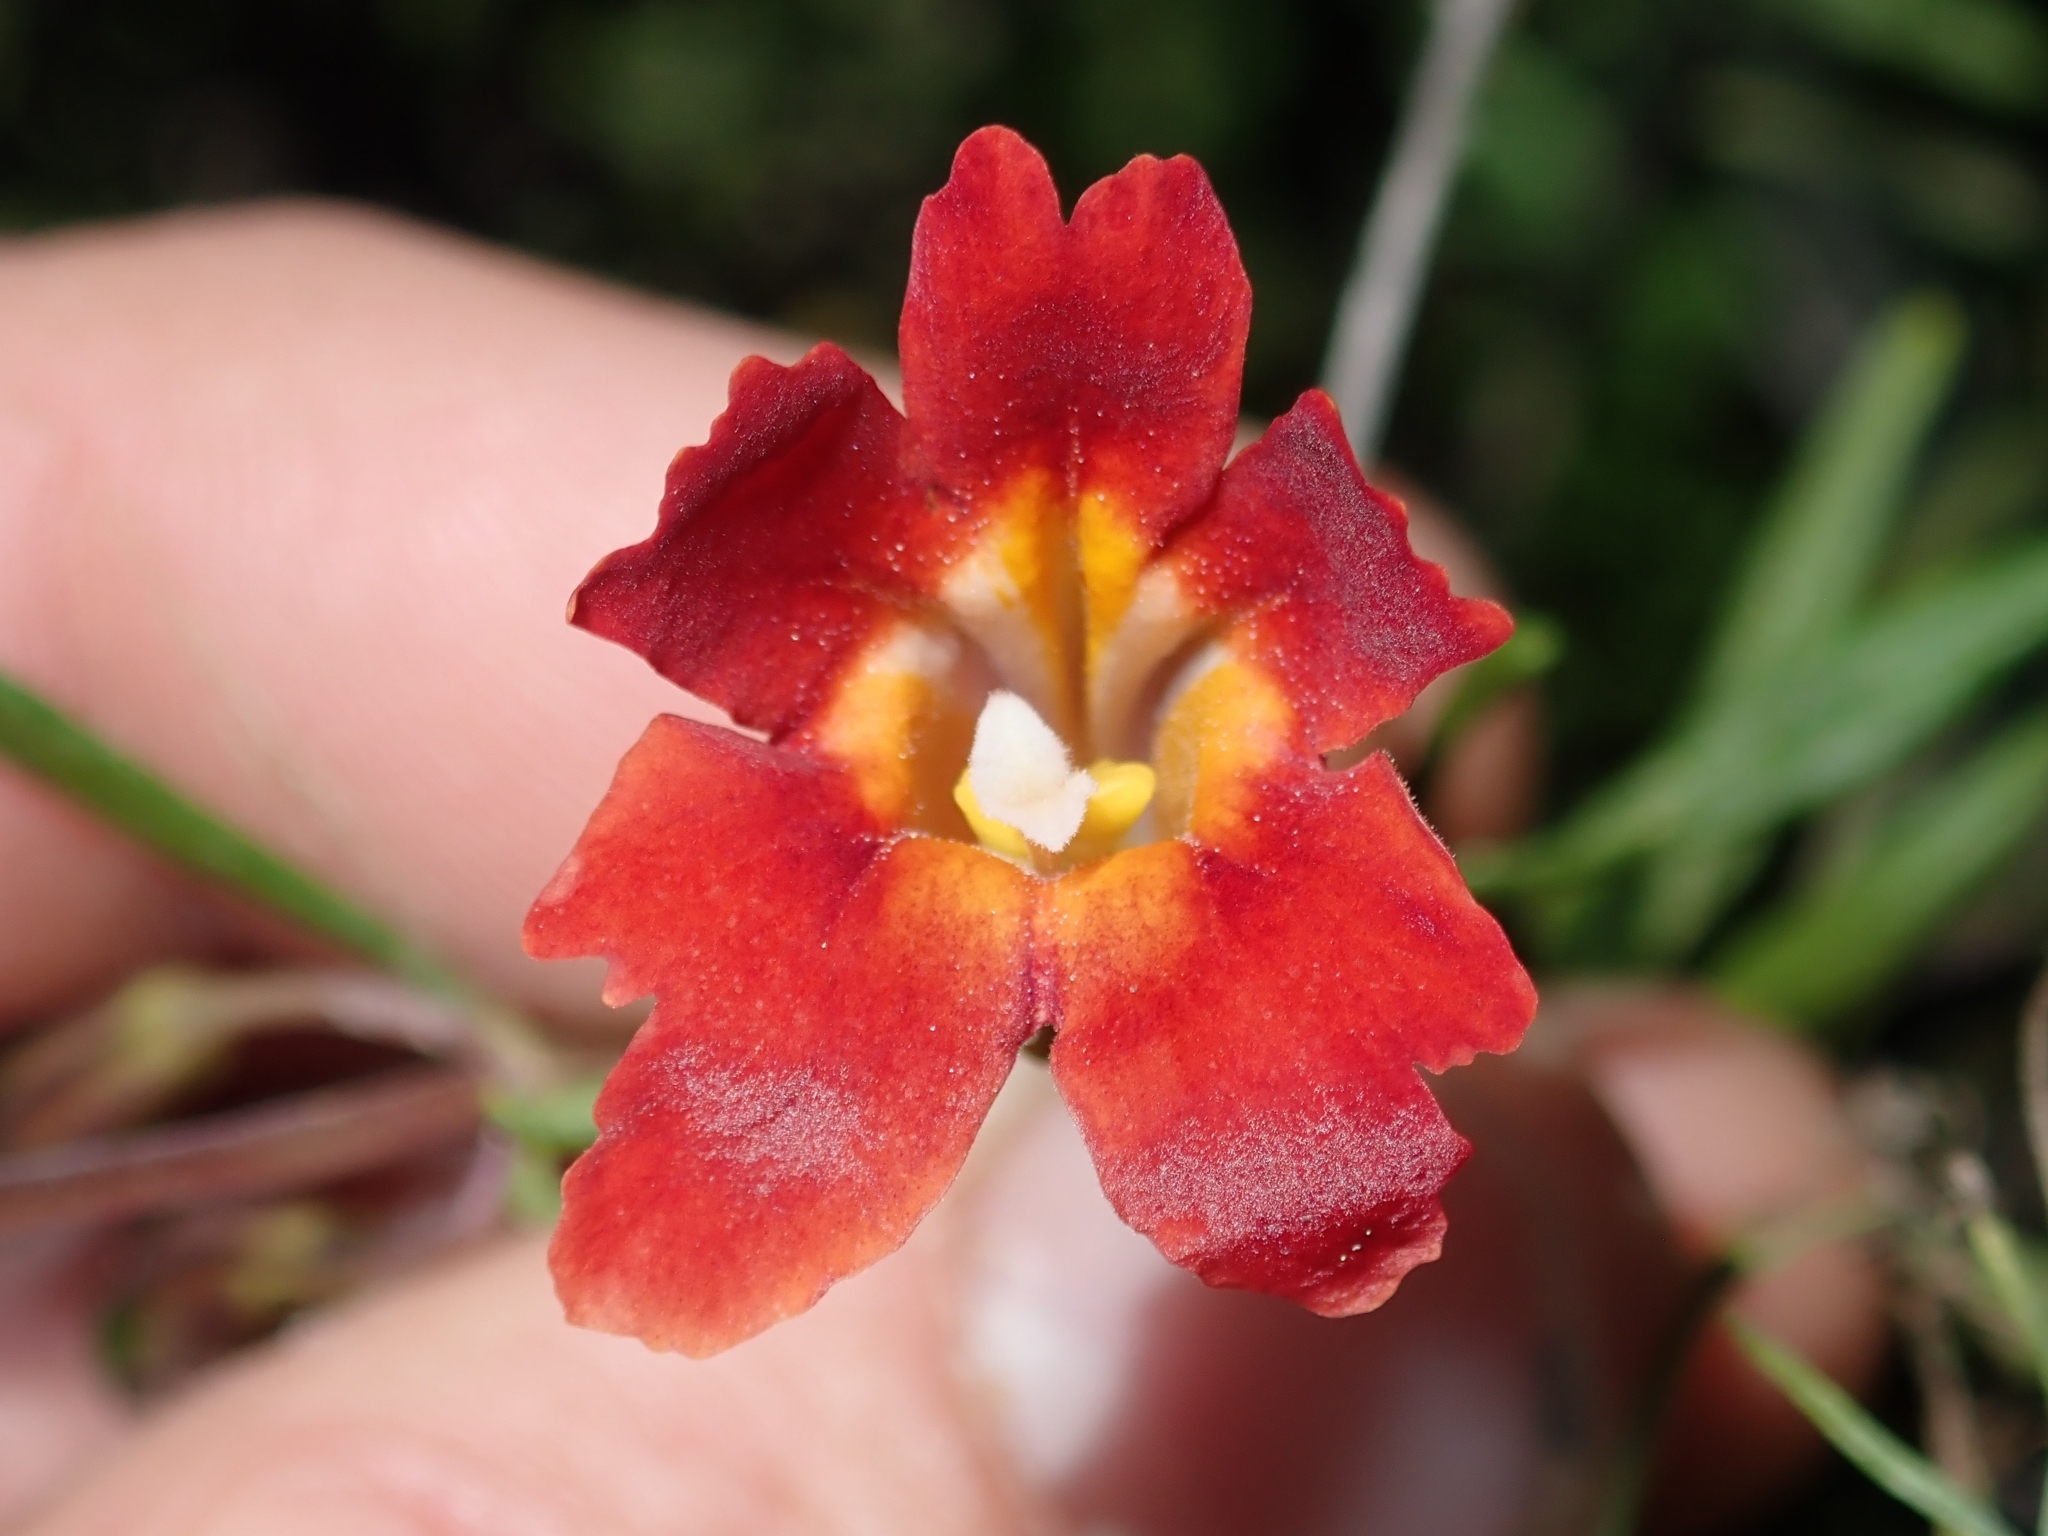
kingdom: Plantae
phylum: Tracheophyta
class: Magnoliopsida
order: Lamiales
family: Phrymaceae
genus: Diplacus
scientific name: Diplacus puniceus
